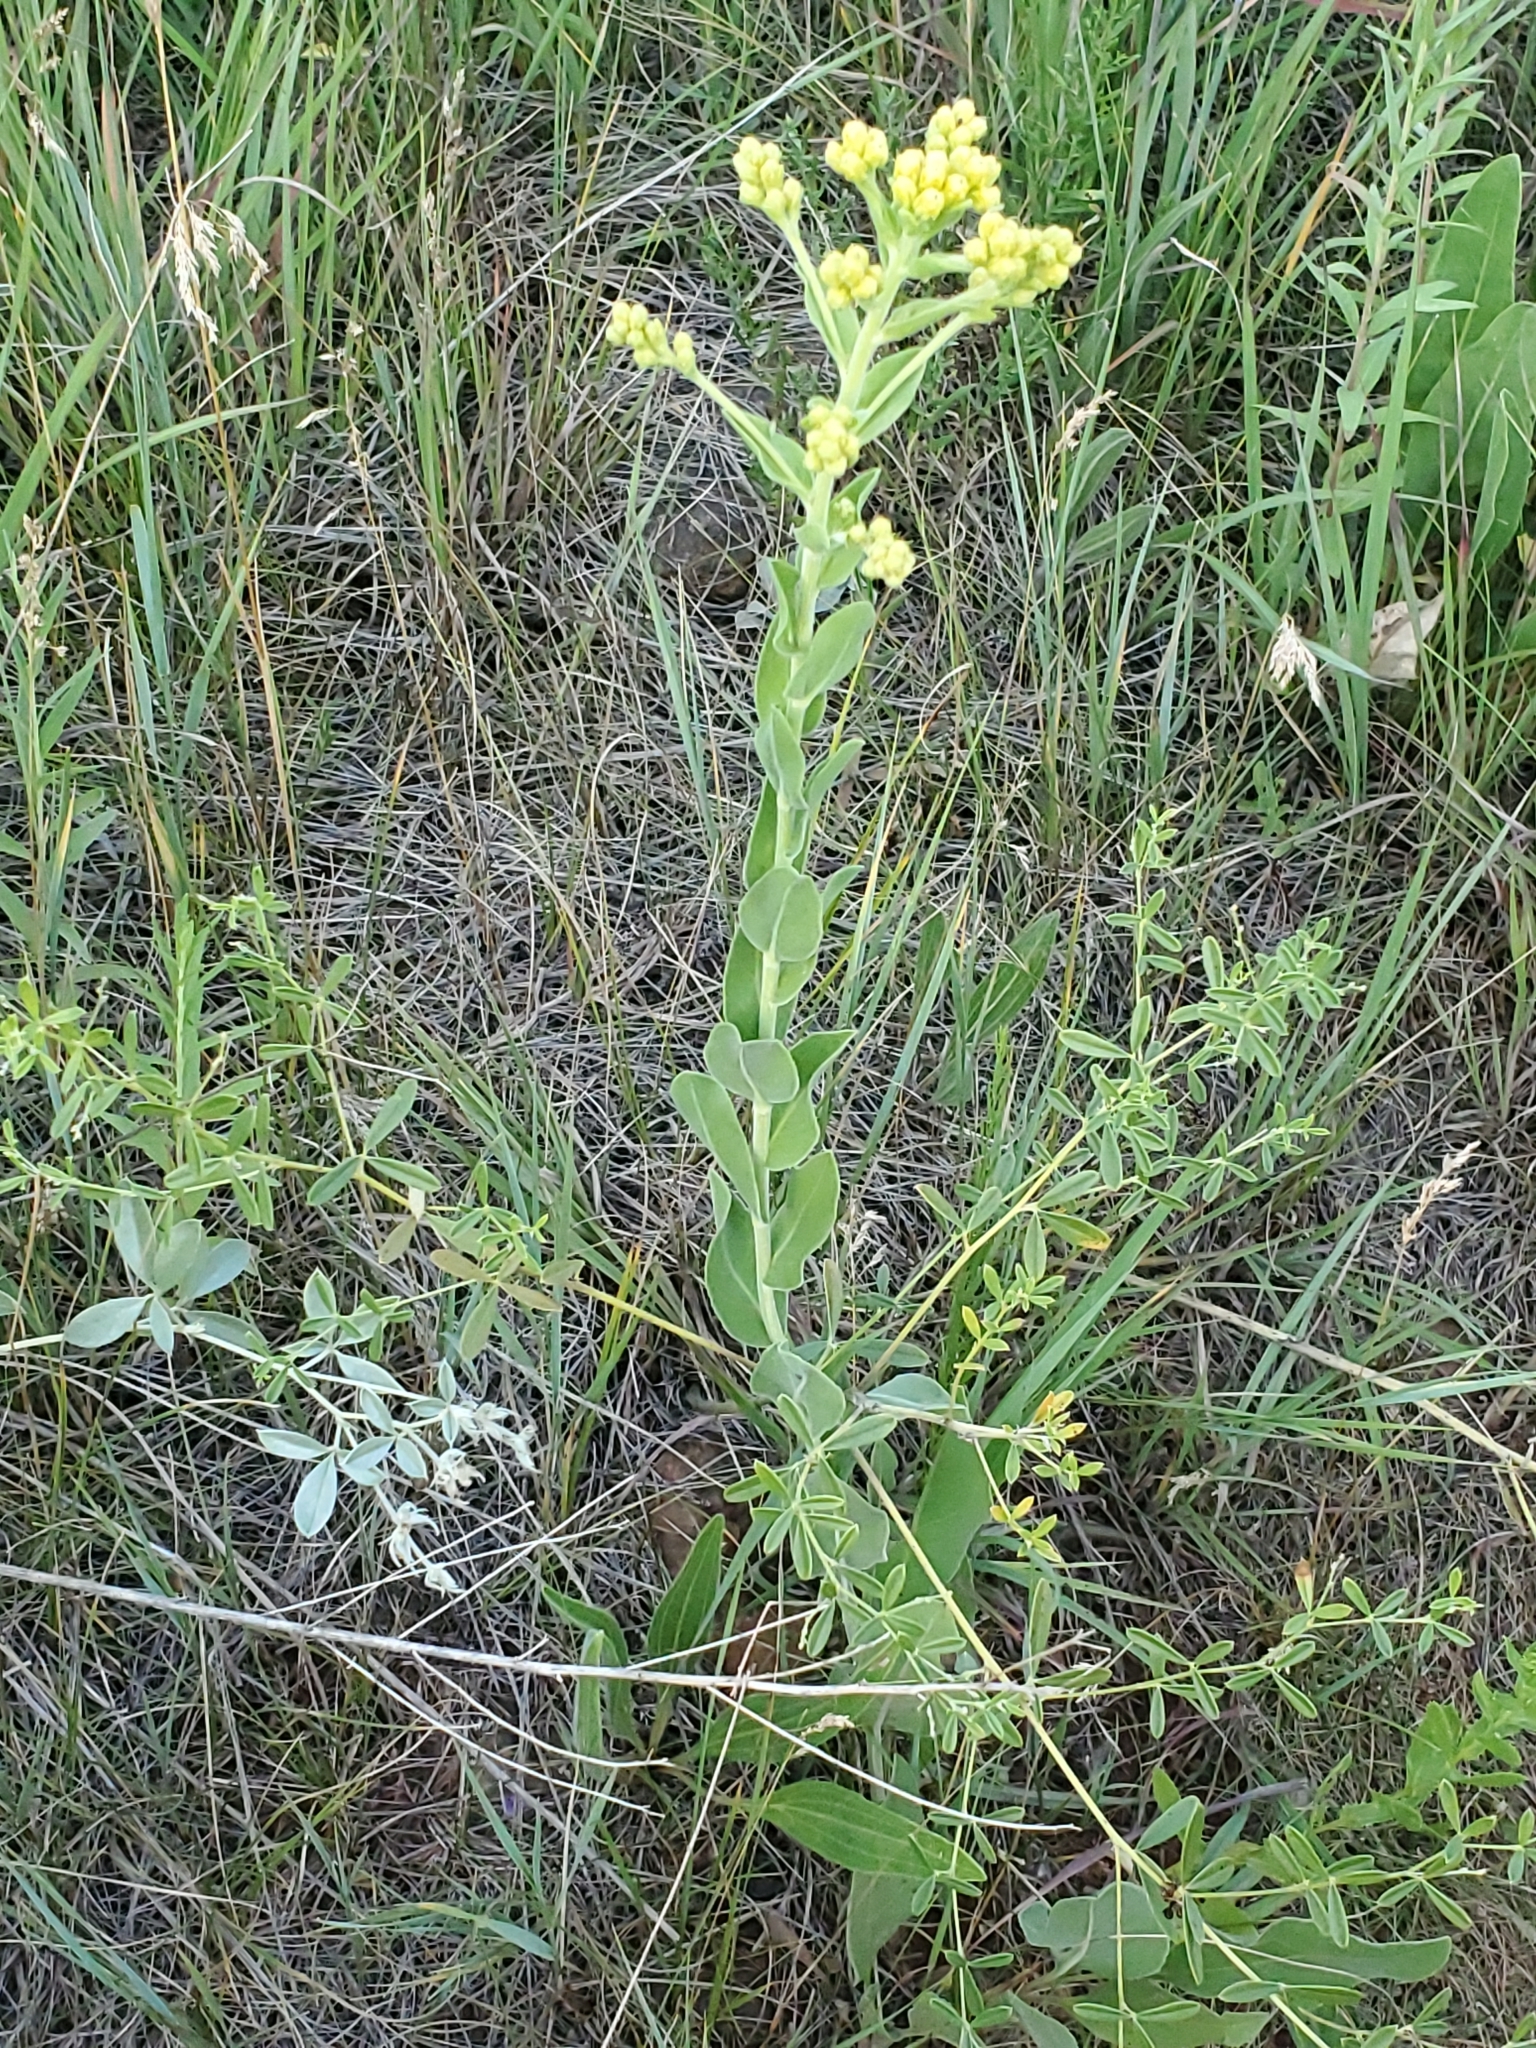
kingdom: Plantae
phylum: Tracheophyta
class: Magnoliopsida
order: Asterales
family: Asteraceae
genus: Solidago
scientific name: Solidago rigida
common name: Rigid goldenrod
